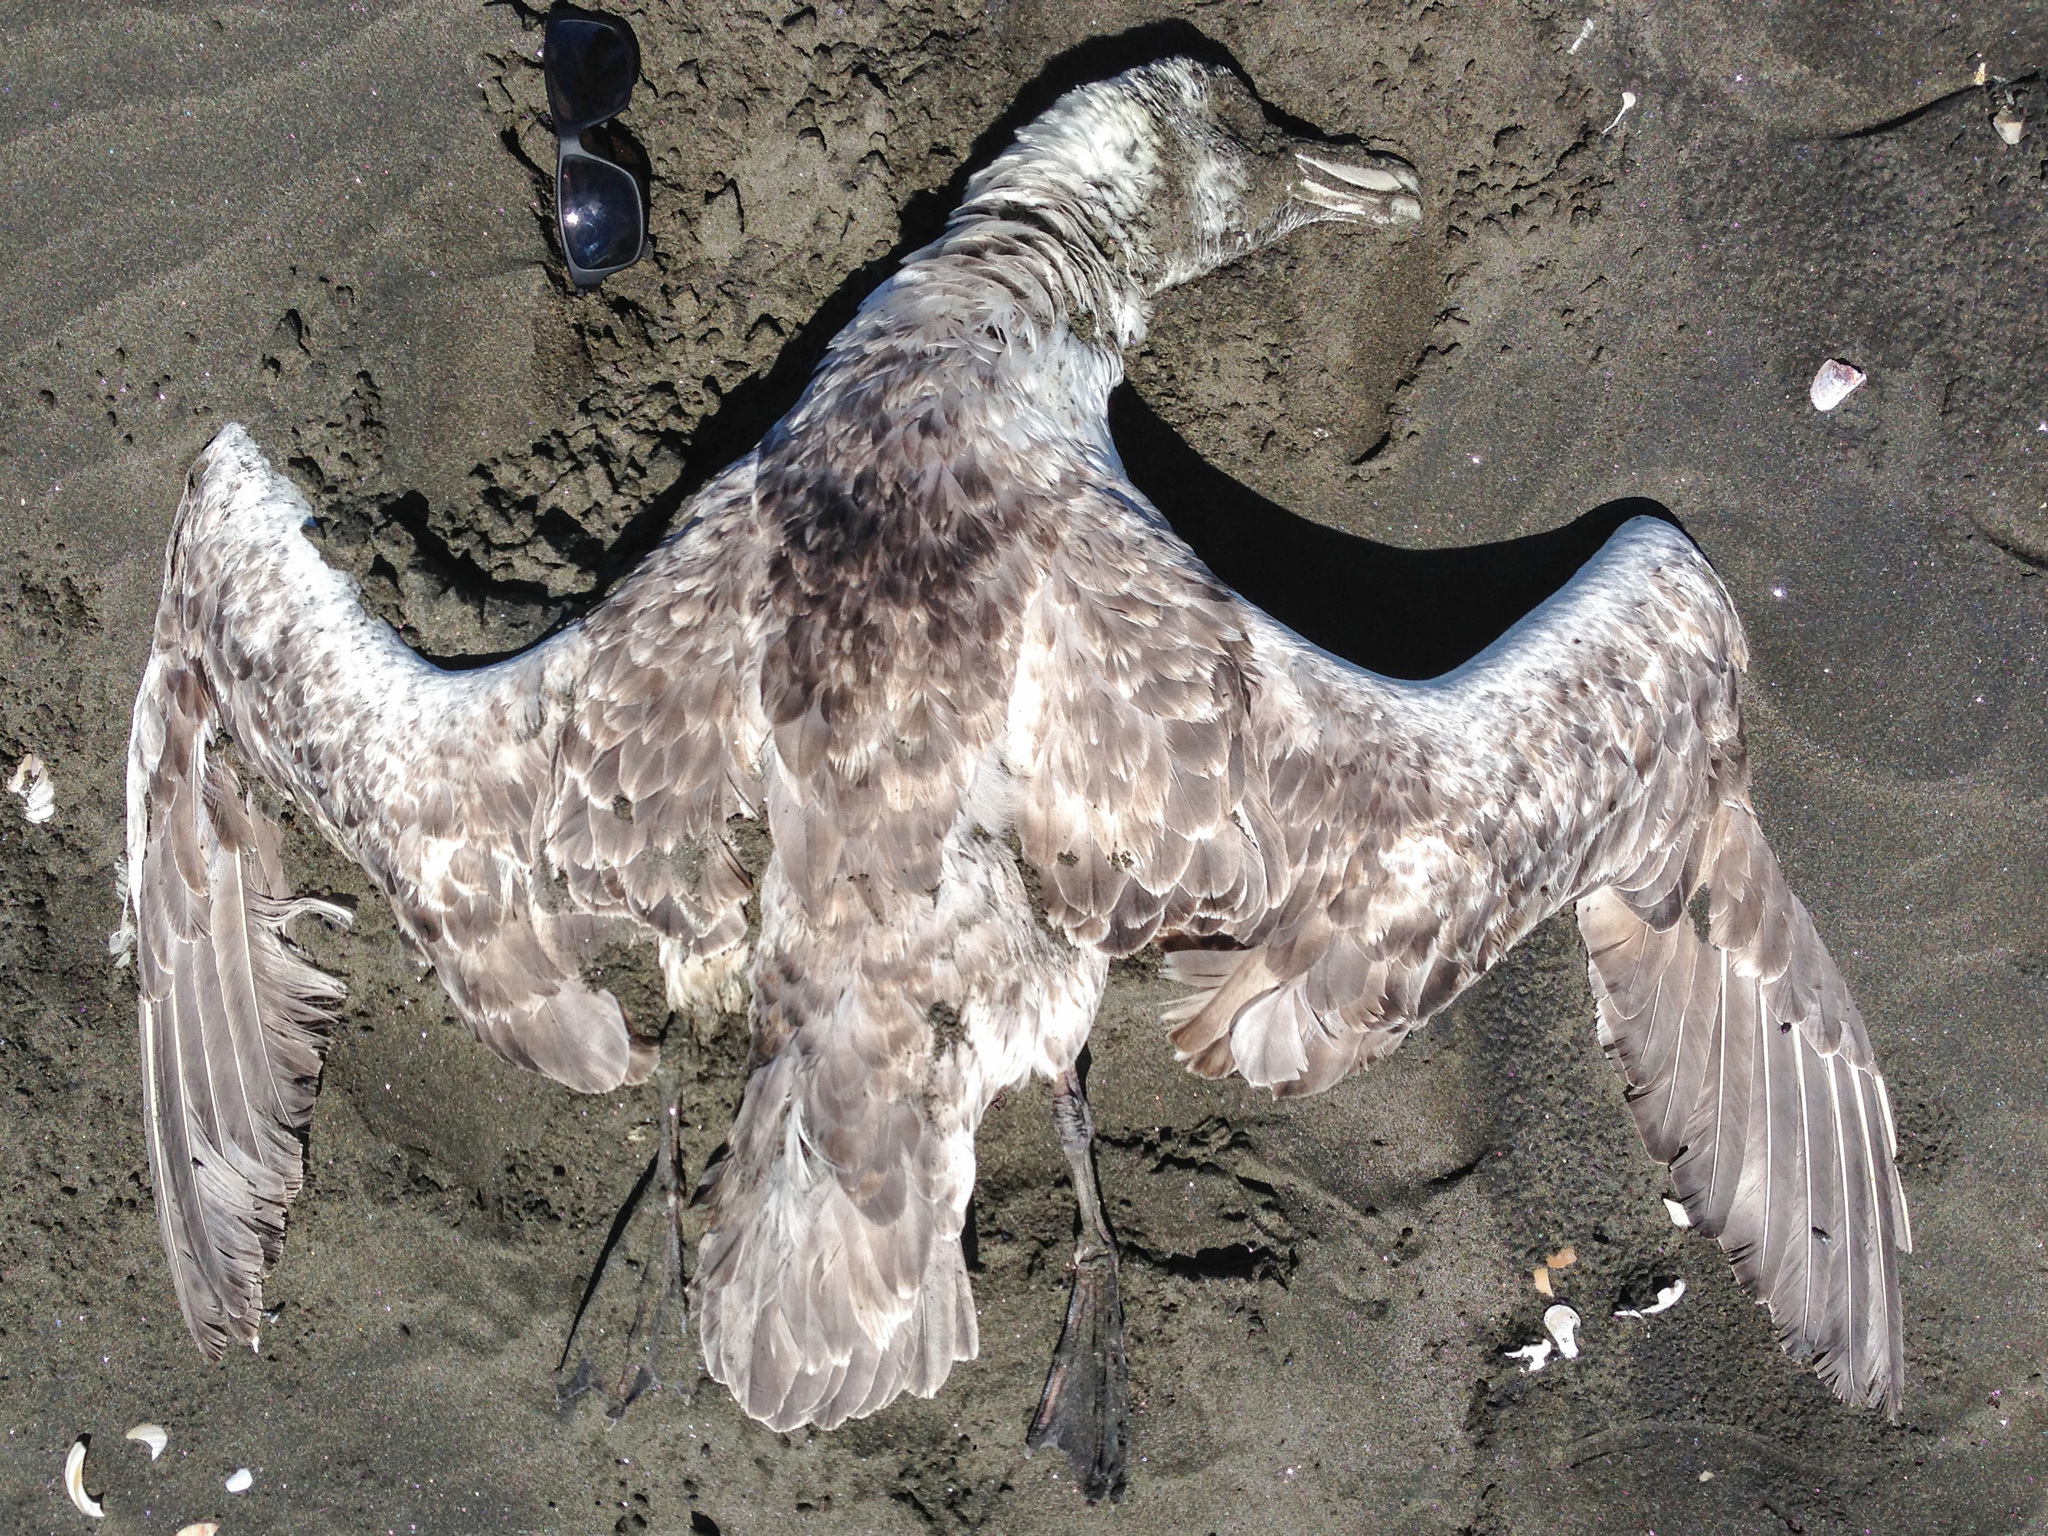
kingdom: Animalia
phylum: Chordata
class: Aves
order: Procellariiformes
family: Procellariidae
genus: Macronectes
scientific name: Macronectes giganteus
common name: Southern giant petrel
